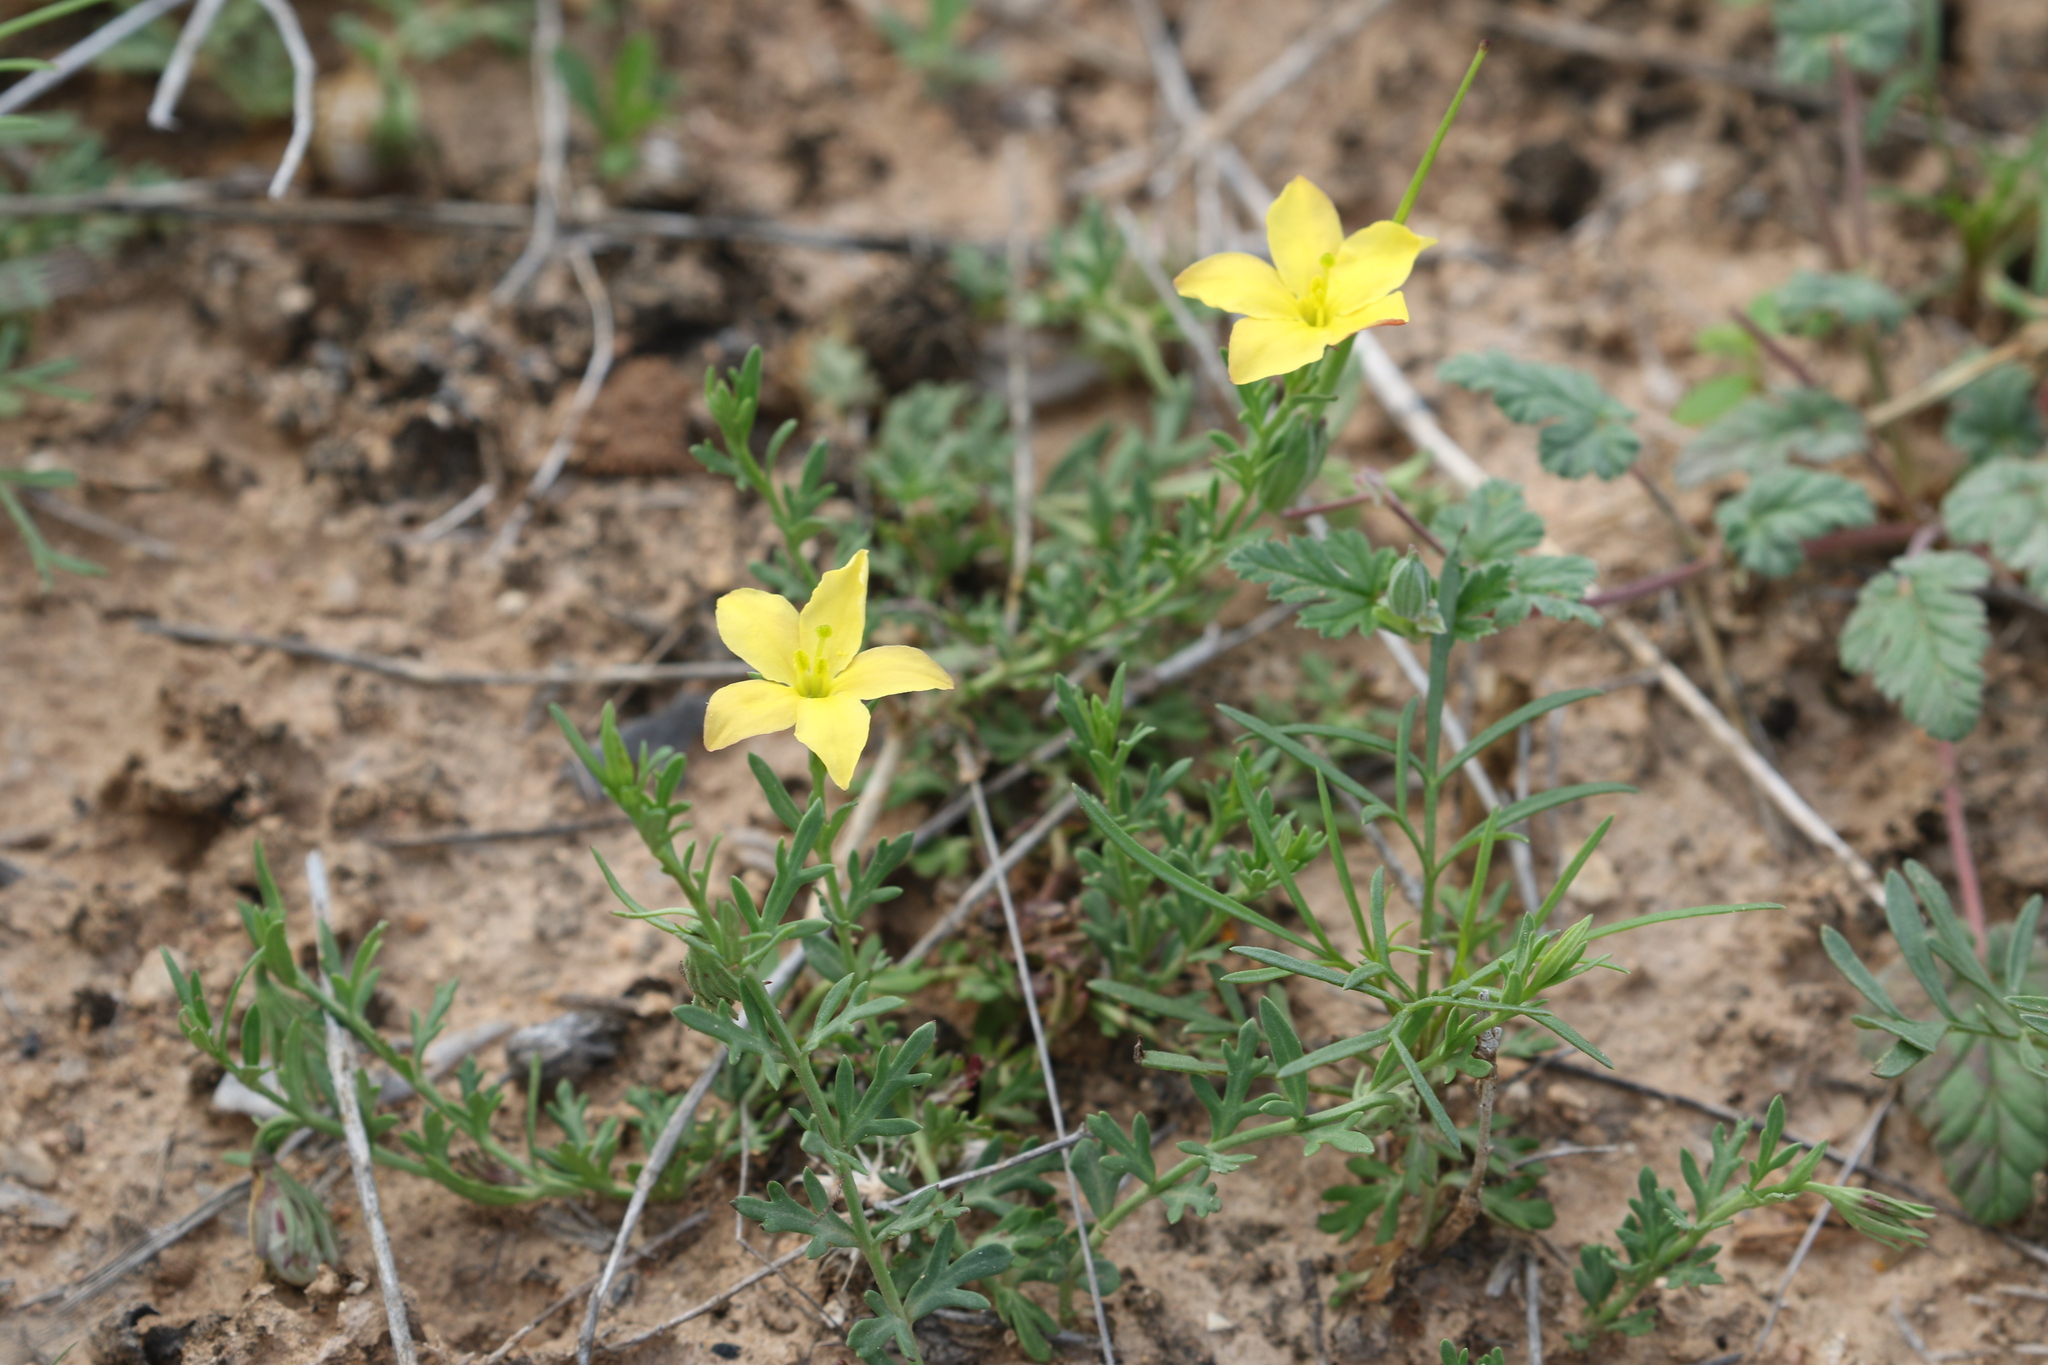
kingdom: Plantae
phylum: Tracheophyta
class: Magnoliopsida
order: Lamiales
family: Oleaceae
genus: Menodora
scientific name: Menodora heterophylla
